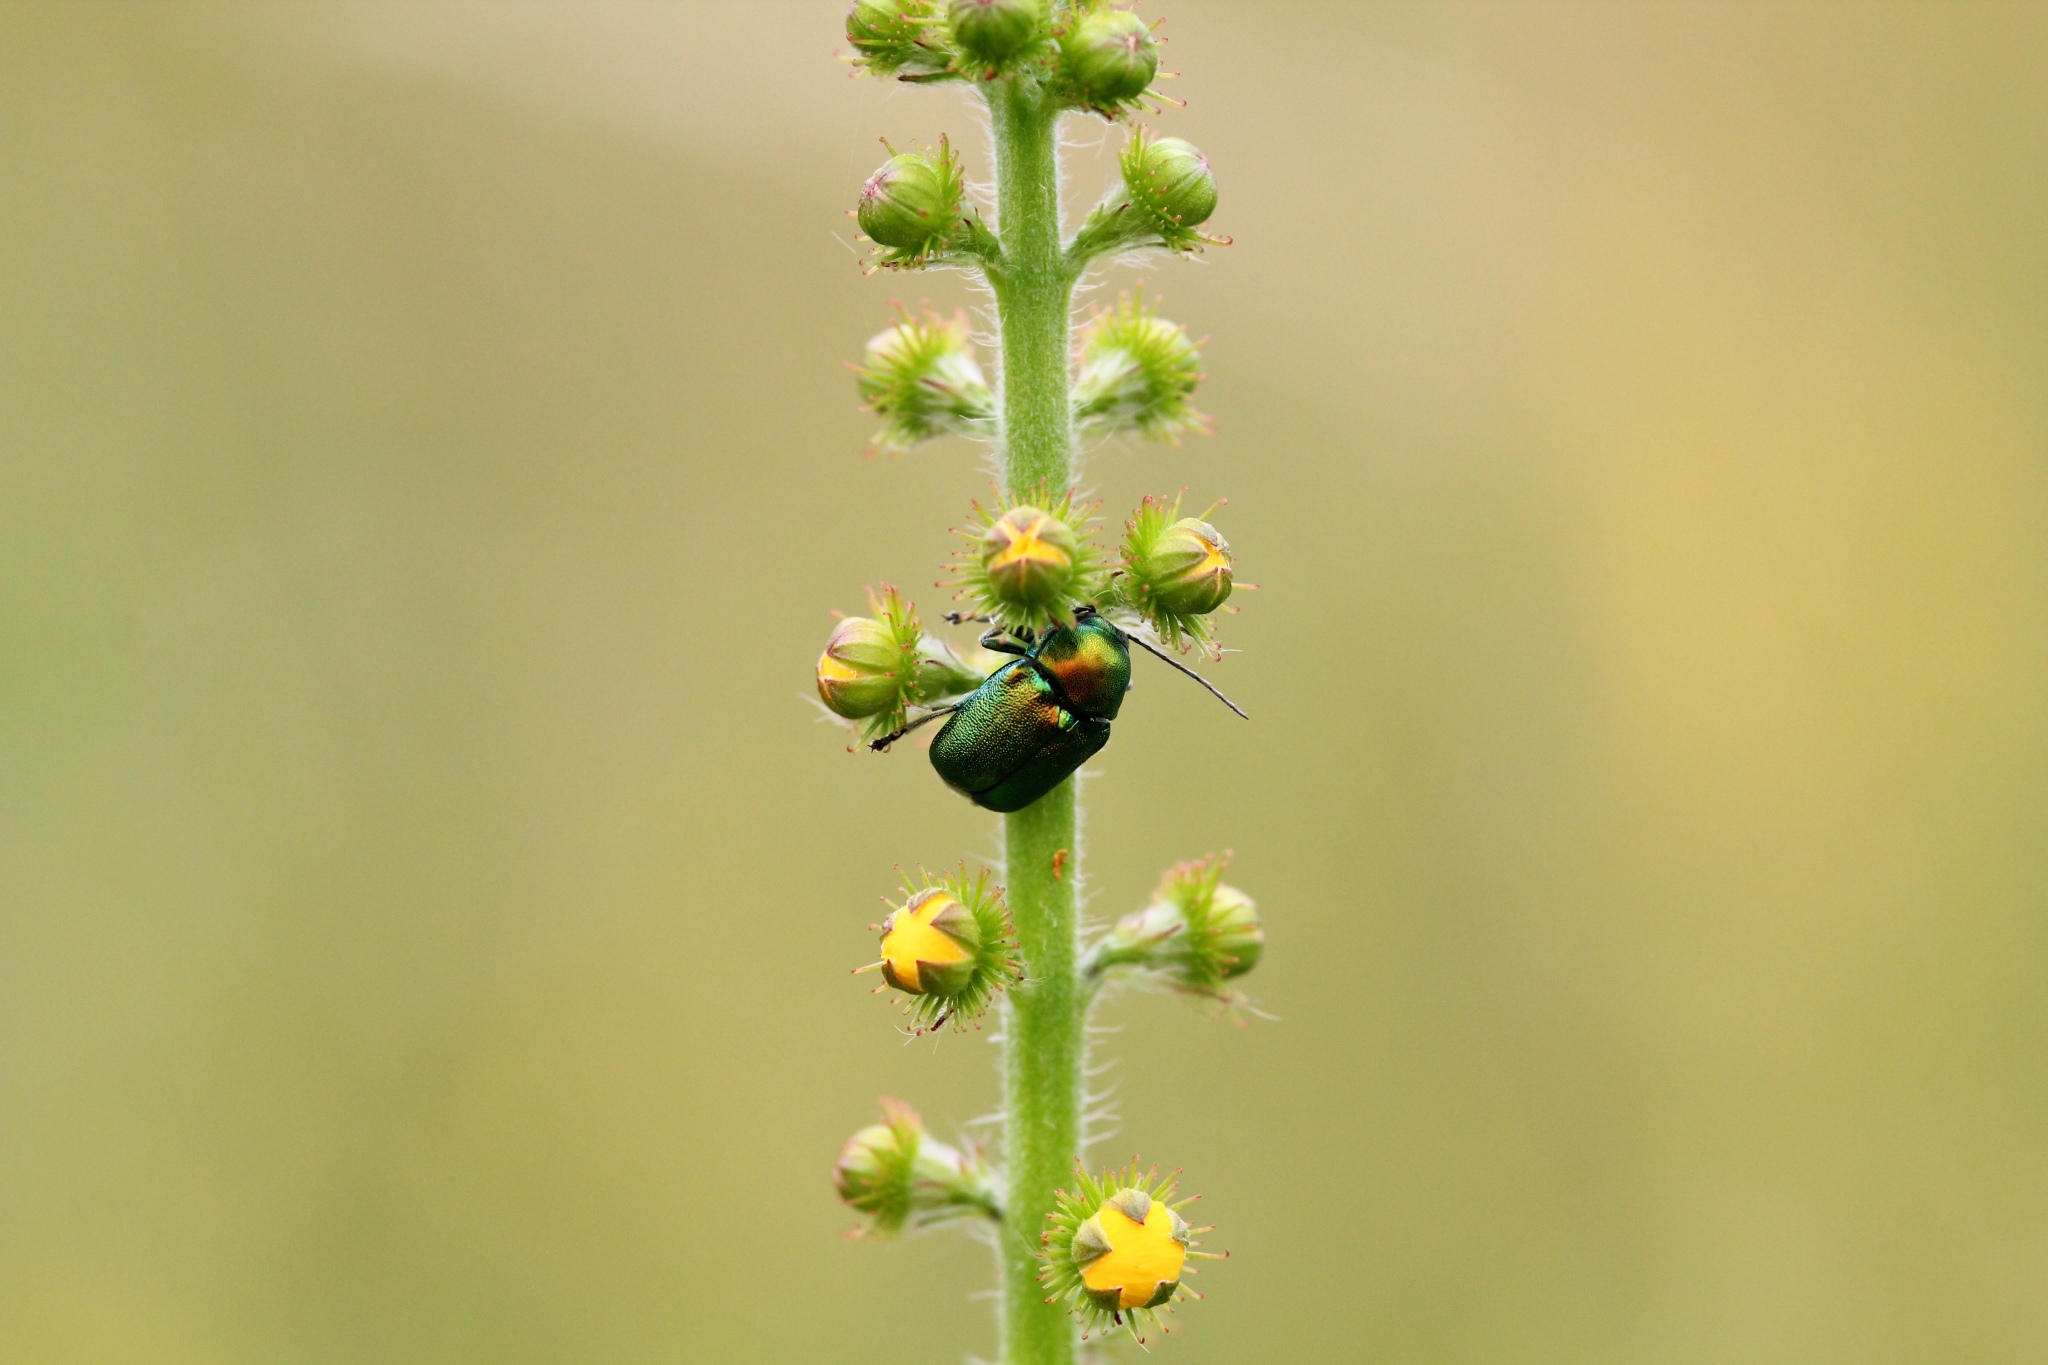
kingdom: Animalia
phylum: Arthropoda
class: Insecta
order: Coleoptera
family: Chrysomelidae
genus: Cryptocephalus
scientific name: Cryptocephalus
